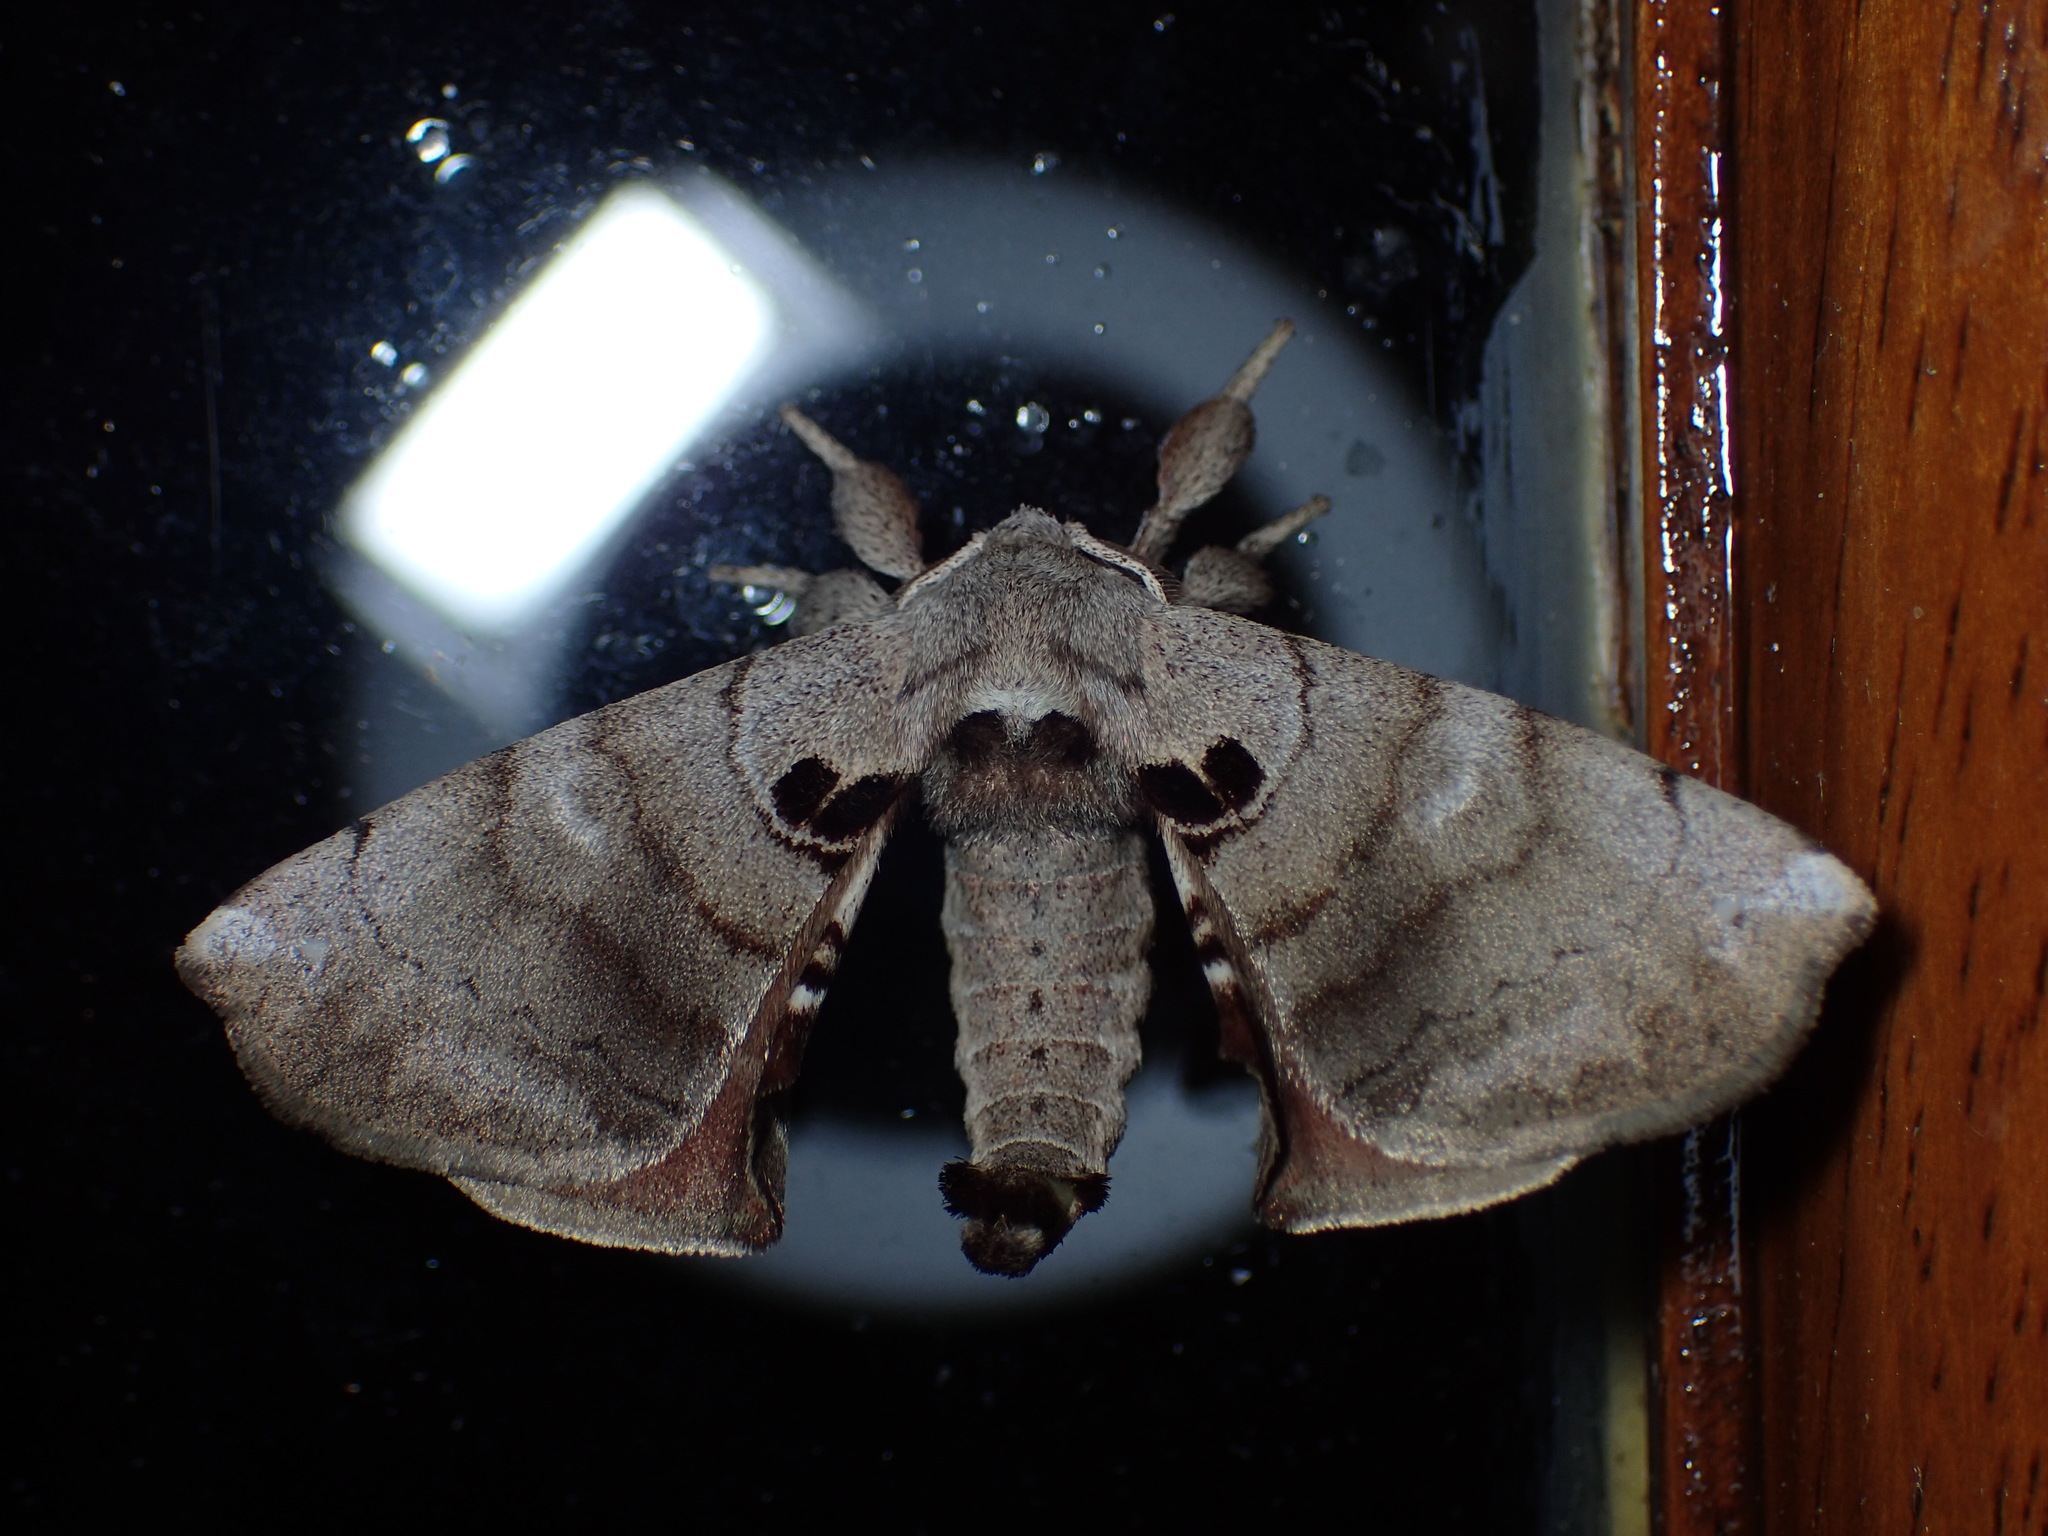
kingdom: Animalia
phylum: Arthropoda
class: Insecta
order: Lepidoptera
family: Apatelodidae
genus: Hygrochroa
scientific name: Hygrochroa Apatelodes torrefacta
